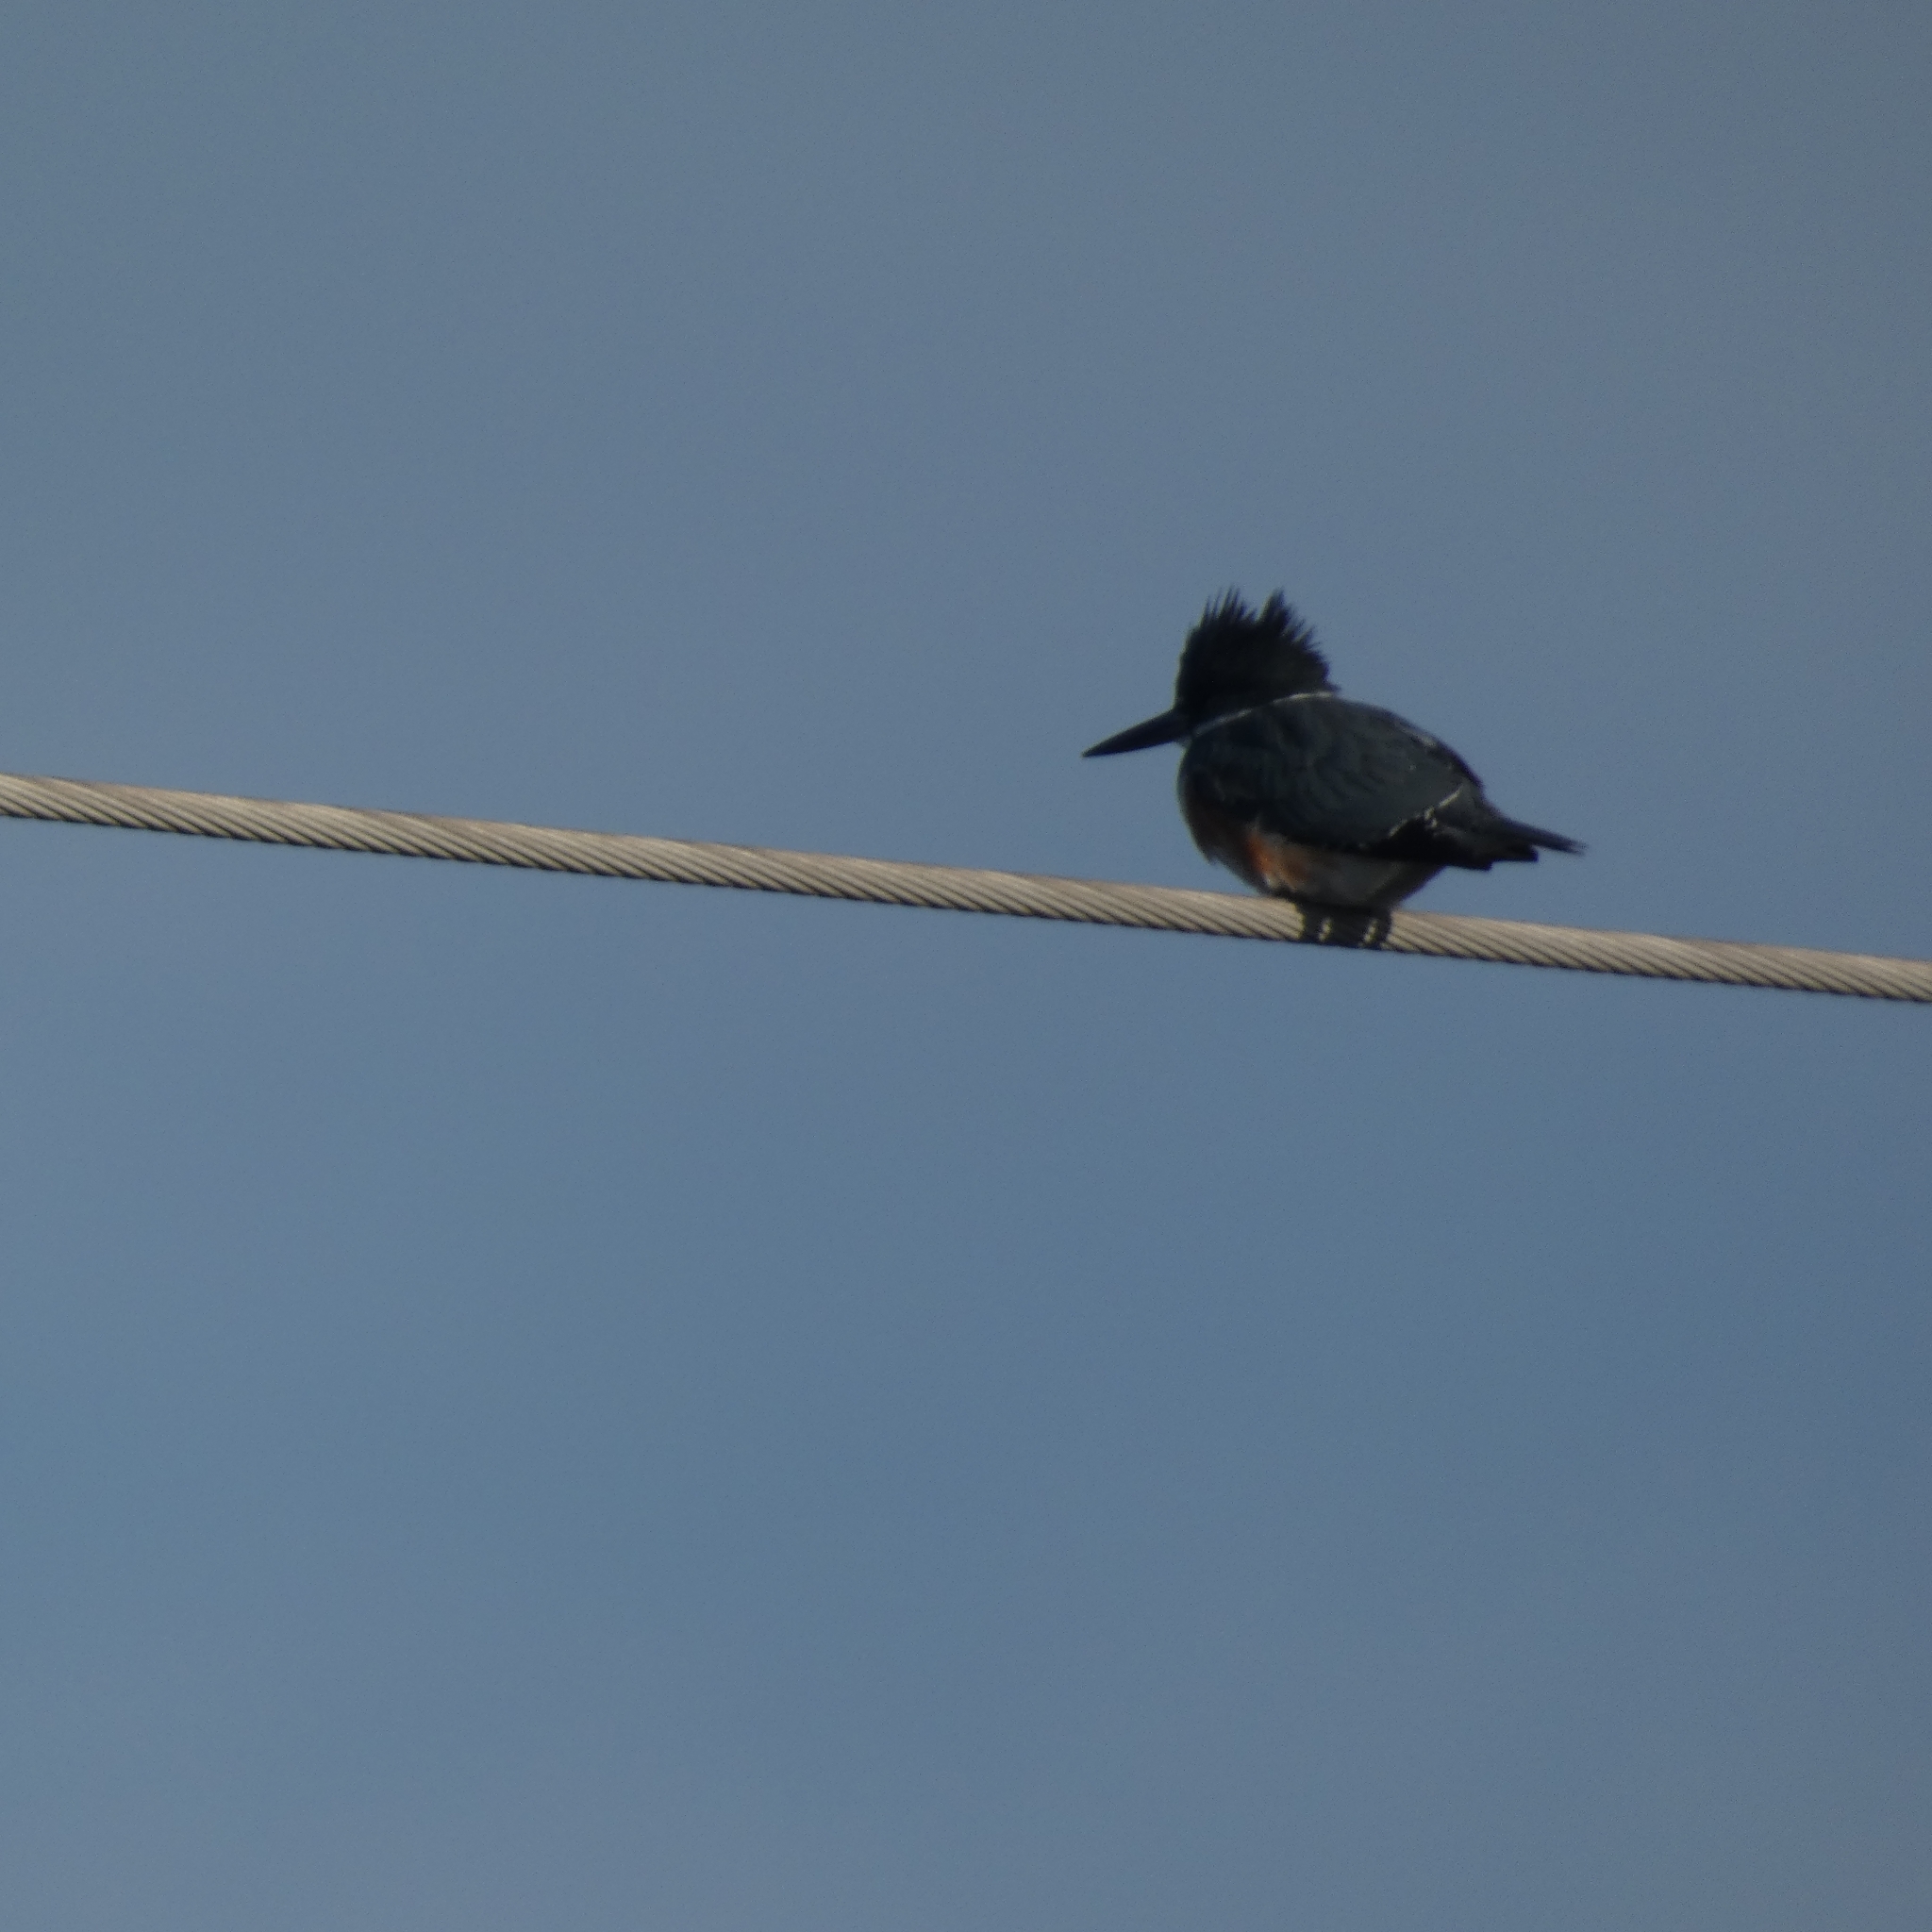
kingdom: Animalia
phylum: Chordata
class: Aves
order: Coraciiformes
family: Alcedinidae
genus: Megaceryle
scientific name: Megaceryle alcyon
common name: Belted kingfisher
